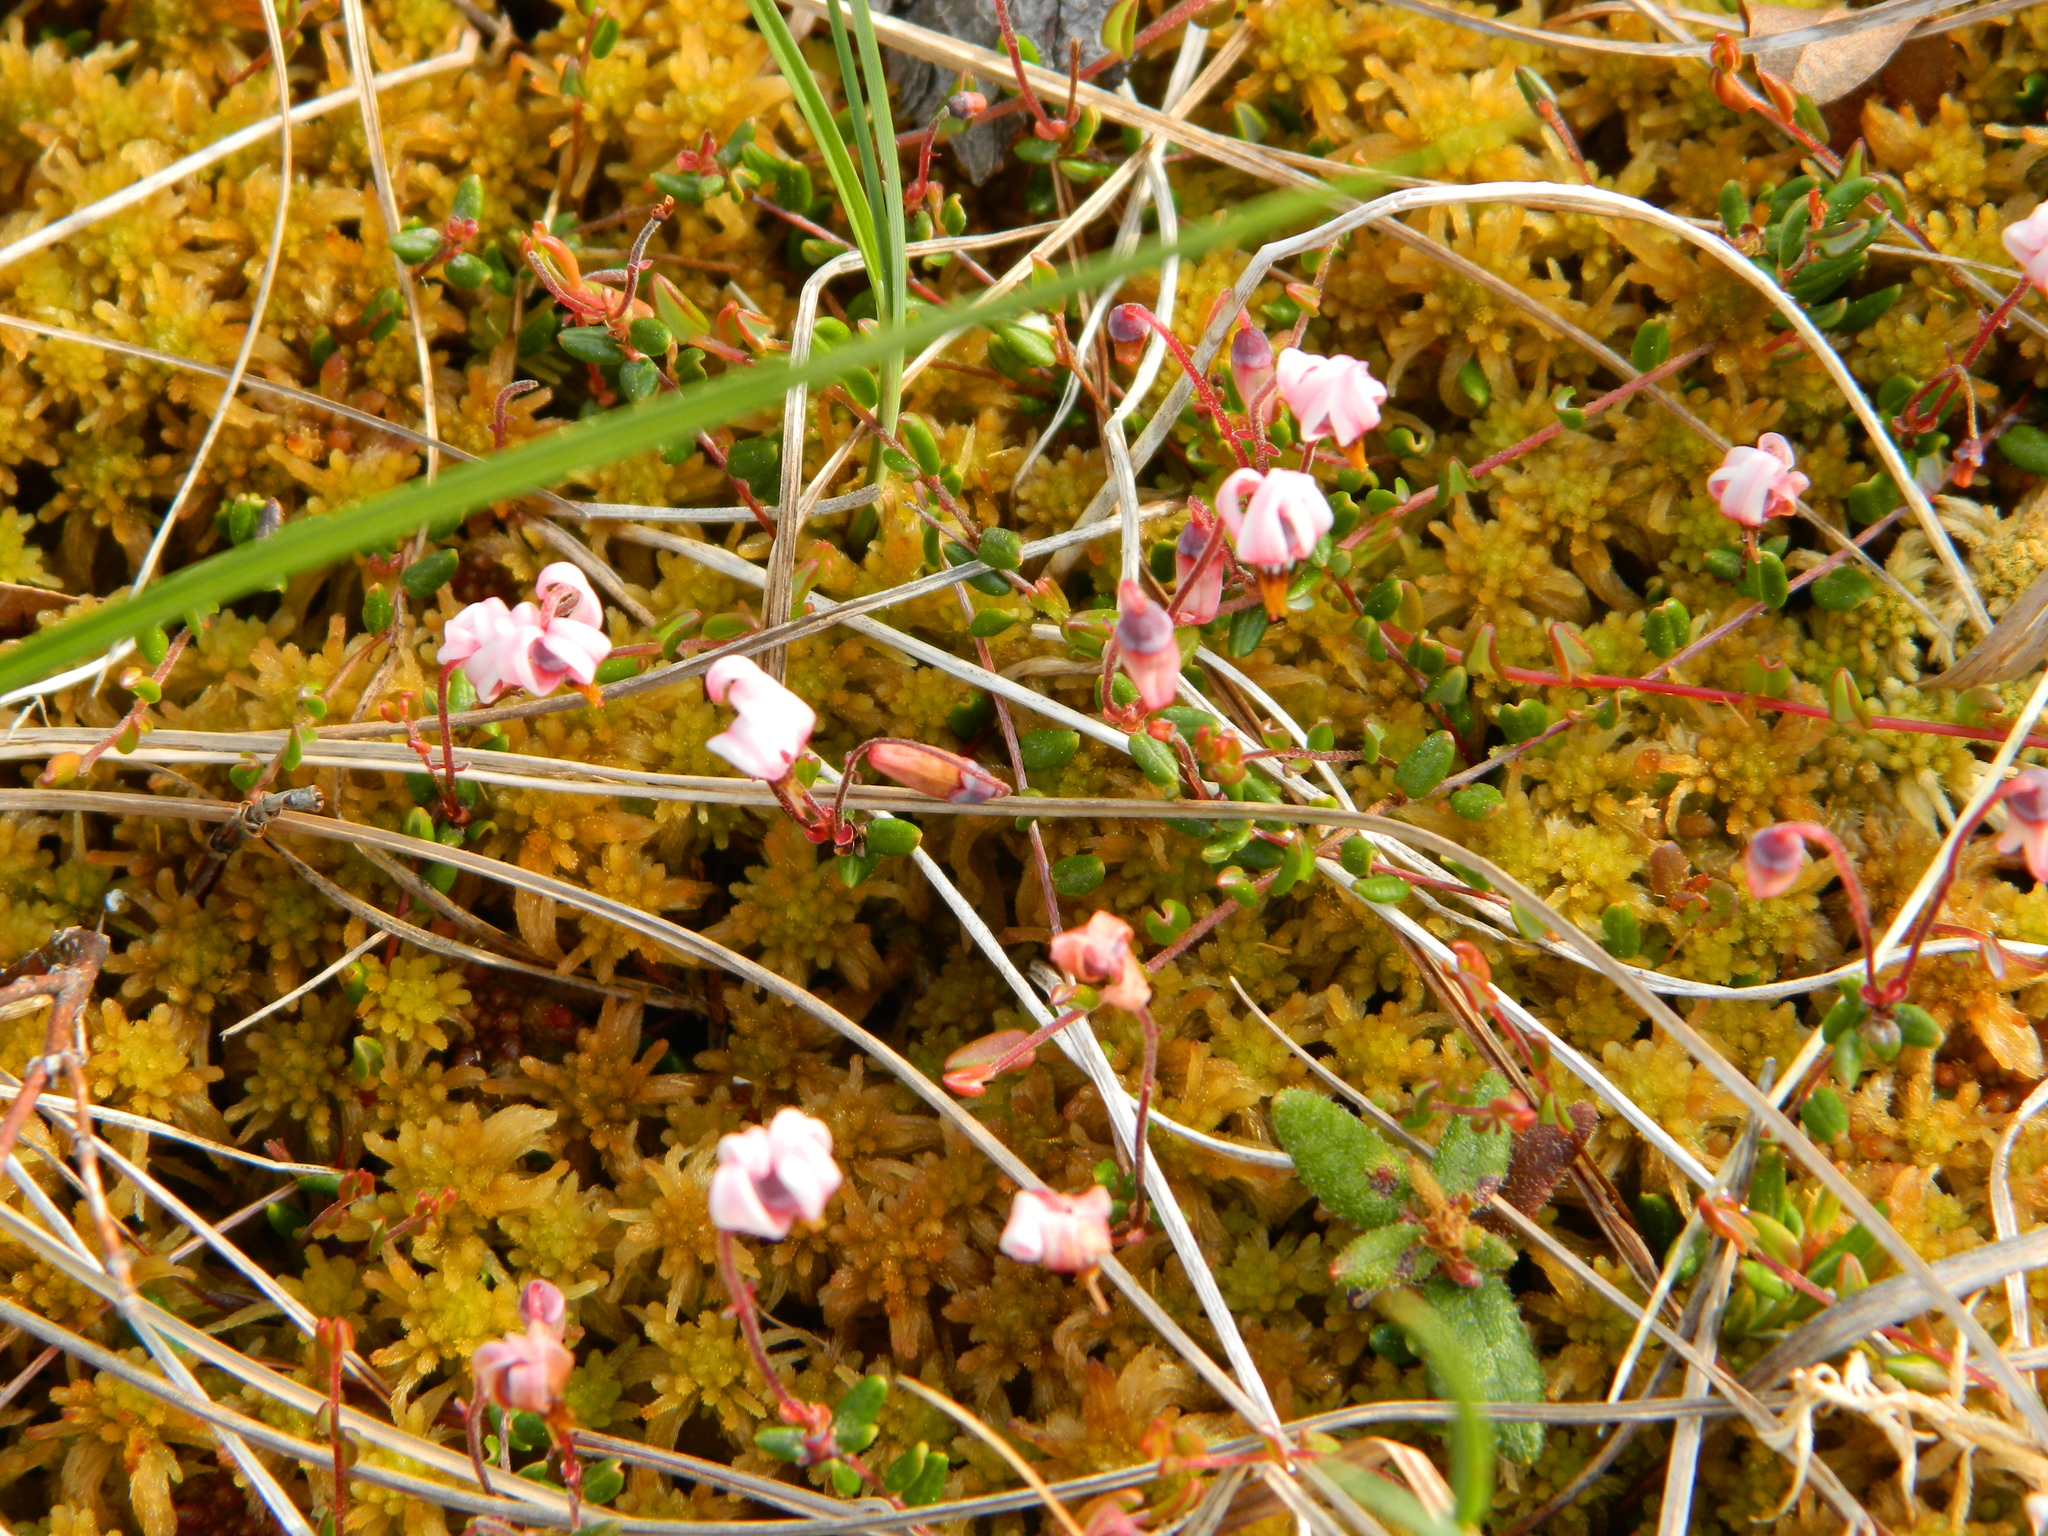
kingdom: Plantae
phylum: Tracheophyta
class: Magnoliopsida
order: Ericales
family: Ericaceae
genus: Vaccinium
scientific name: Vaccinium oxycoccos
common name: Cranberry
